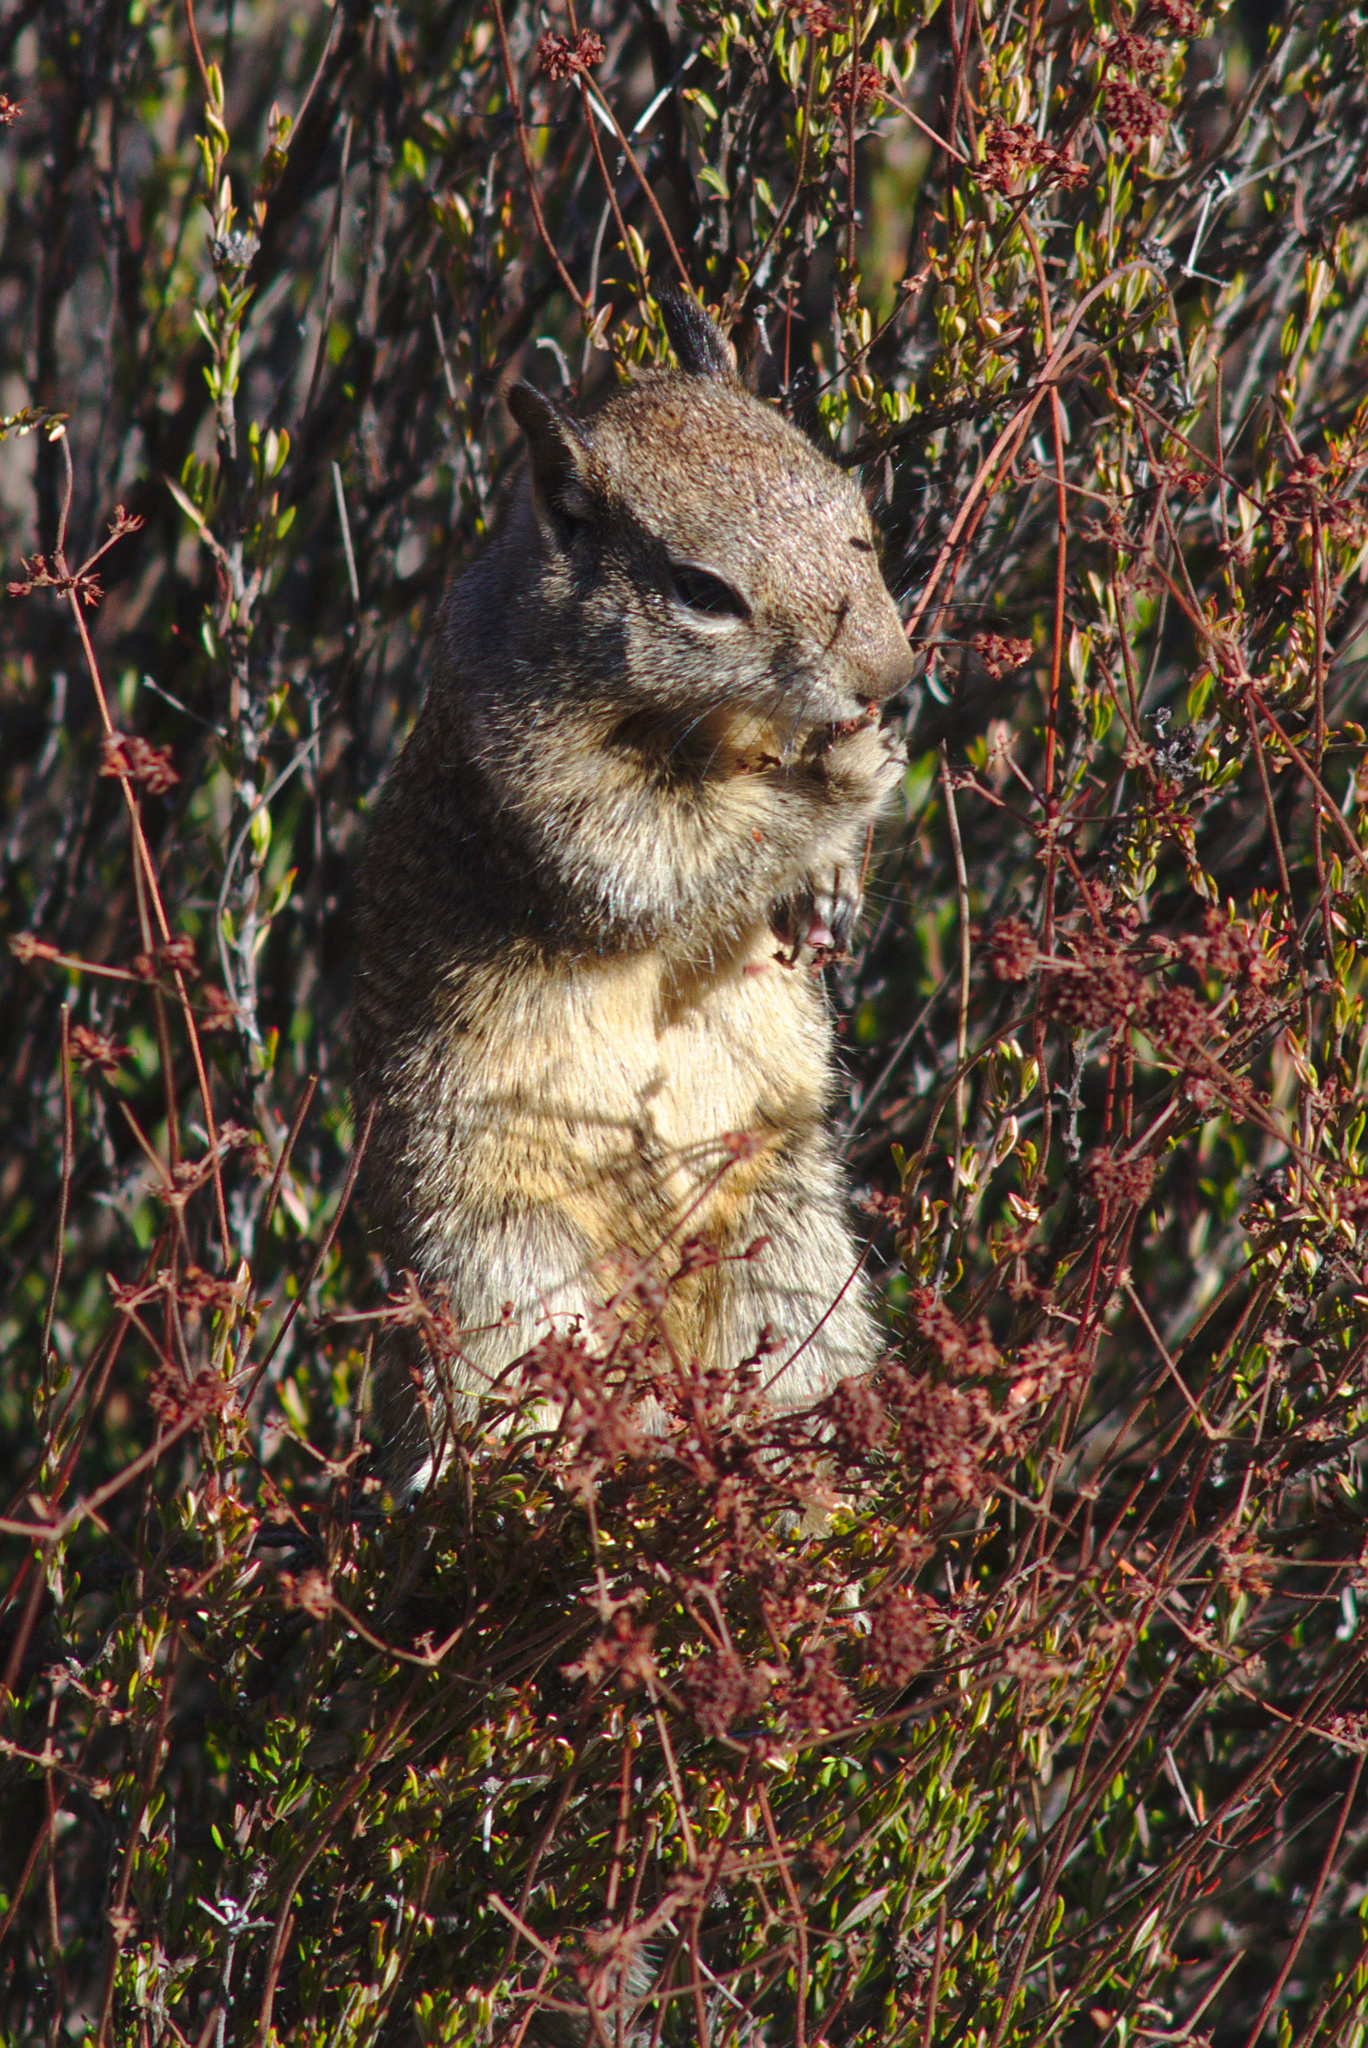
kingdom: Animalia
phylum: Chordata
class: Mammalia
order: Rodentia
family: Sciuridae
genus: Otospermophilus
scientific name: Otospermophilus beecheyi
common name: California ground squirrel
